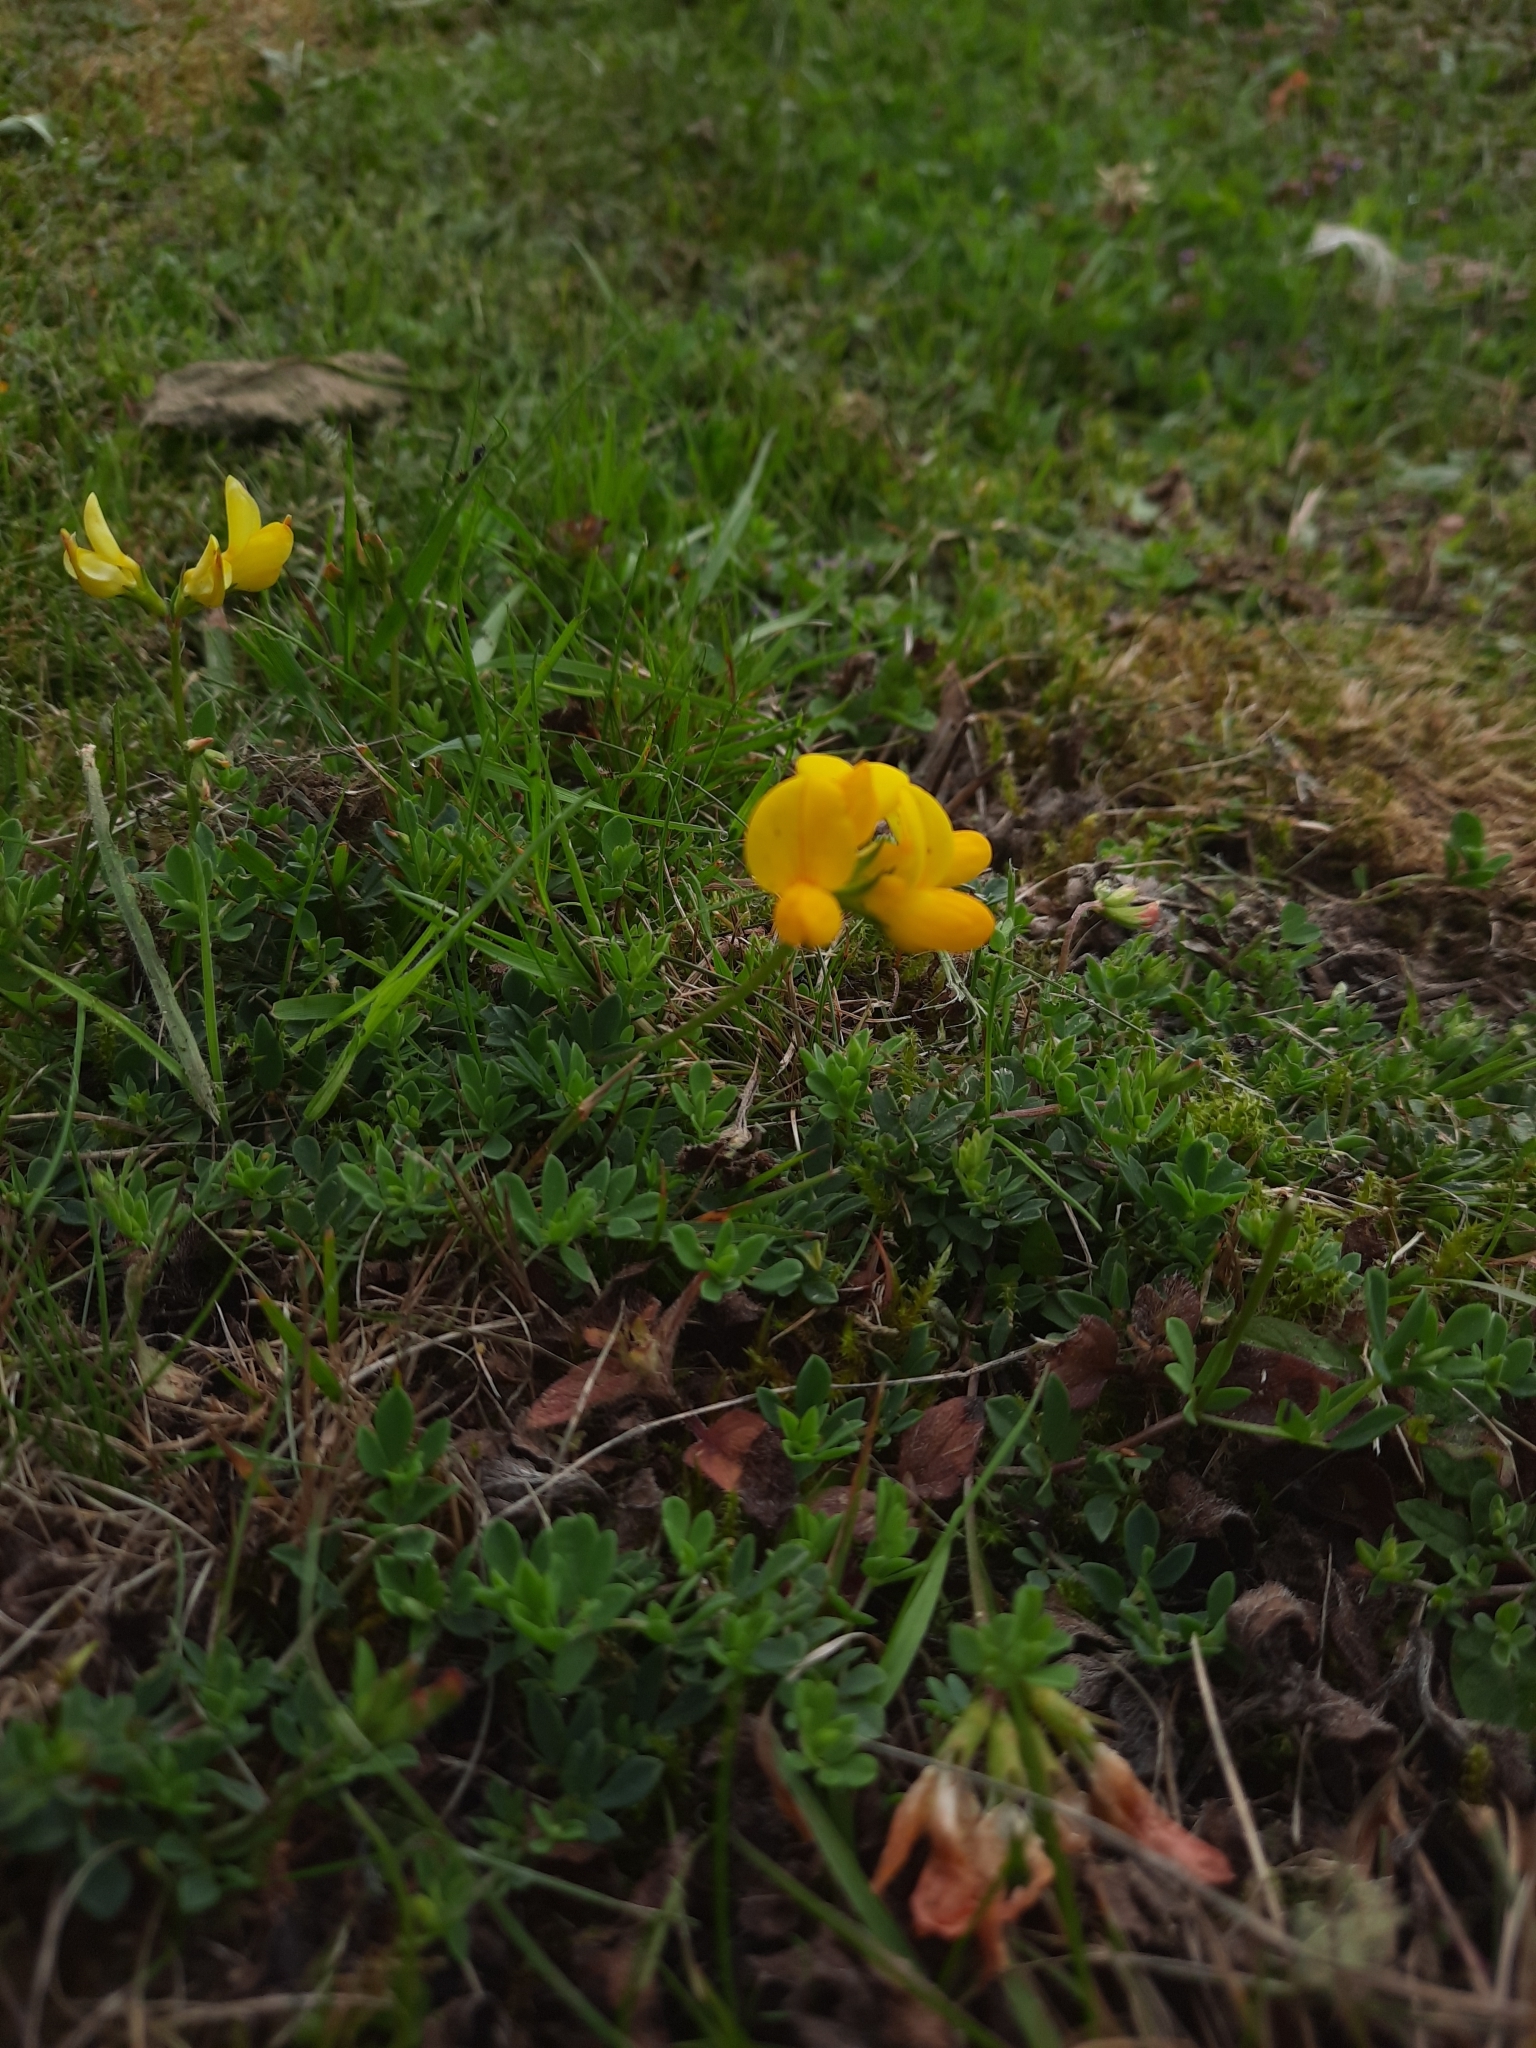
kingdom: Plantae
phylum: Tracheophyta
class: Magnoliopsida
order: Fabales
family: Fabaceae
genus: Lotus
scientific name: Lotus corniculatus
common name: Common bird's-foot-trefoil
